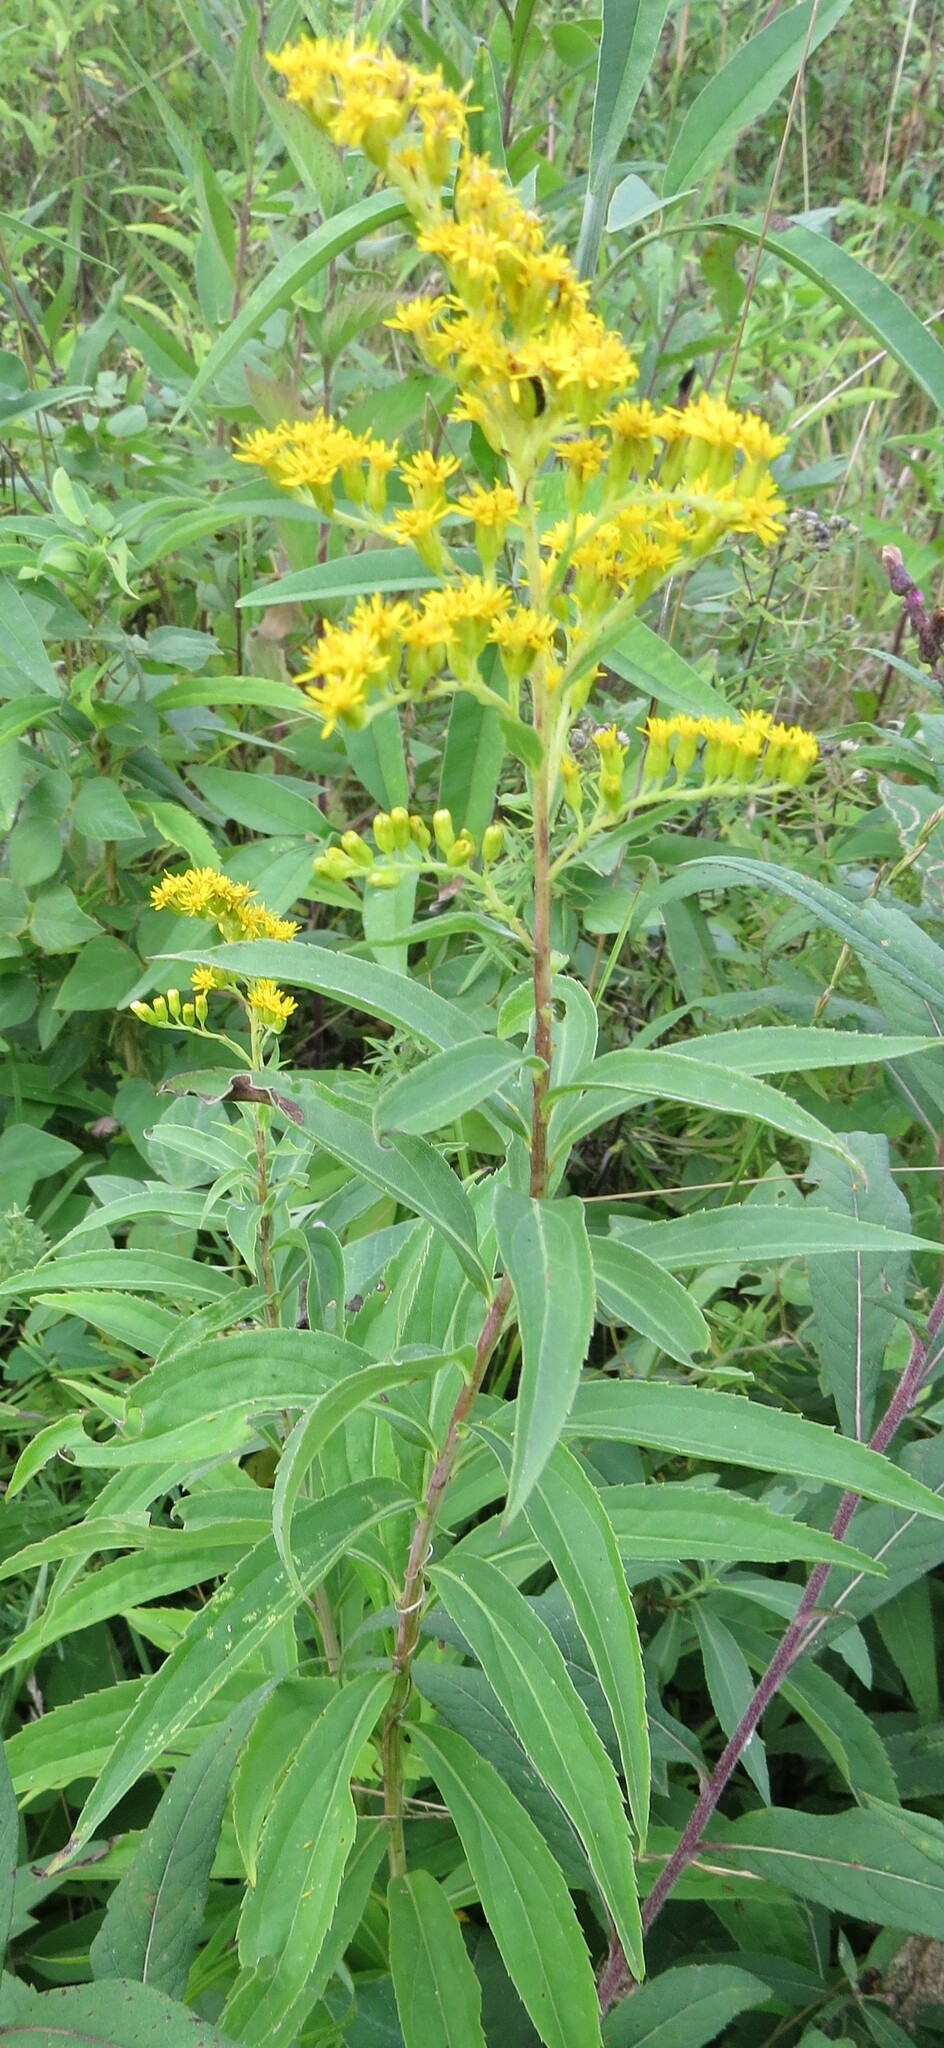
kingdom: Plantae
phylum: Tracheophyta
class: Magnoliopsida
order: Asterales
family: Asteraceae
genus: Solidago
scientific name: Solidago gigantea
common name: Giant goldenrod
